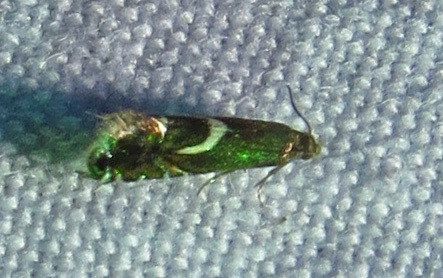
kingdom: Animalia
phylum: Arthropoda
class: Insecta
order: Lepidoptera
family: Glyphipterigidae
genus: Glyphipterix
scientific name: Glyphipterix Diploschizia impigritella
